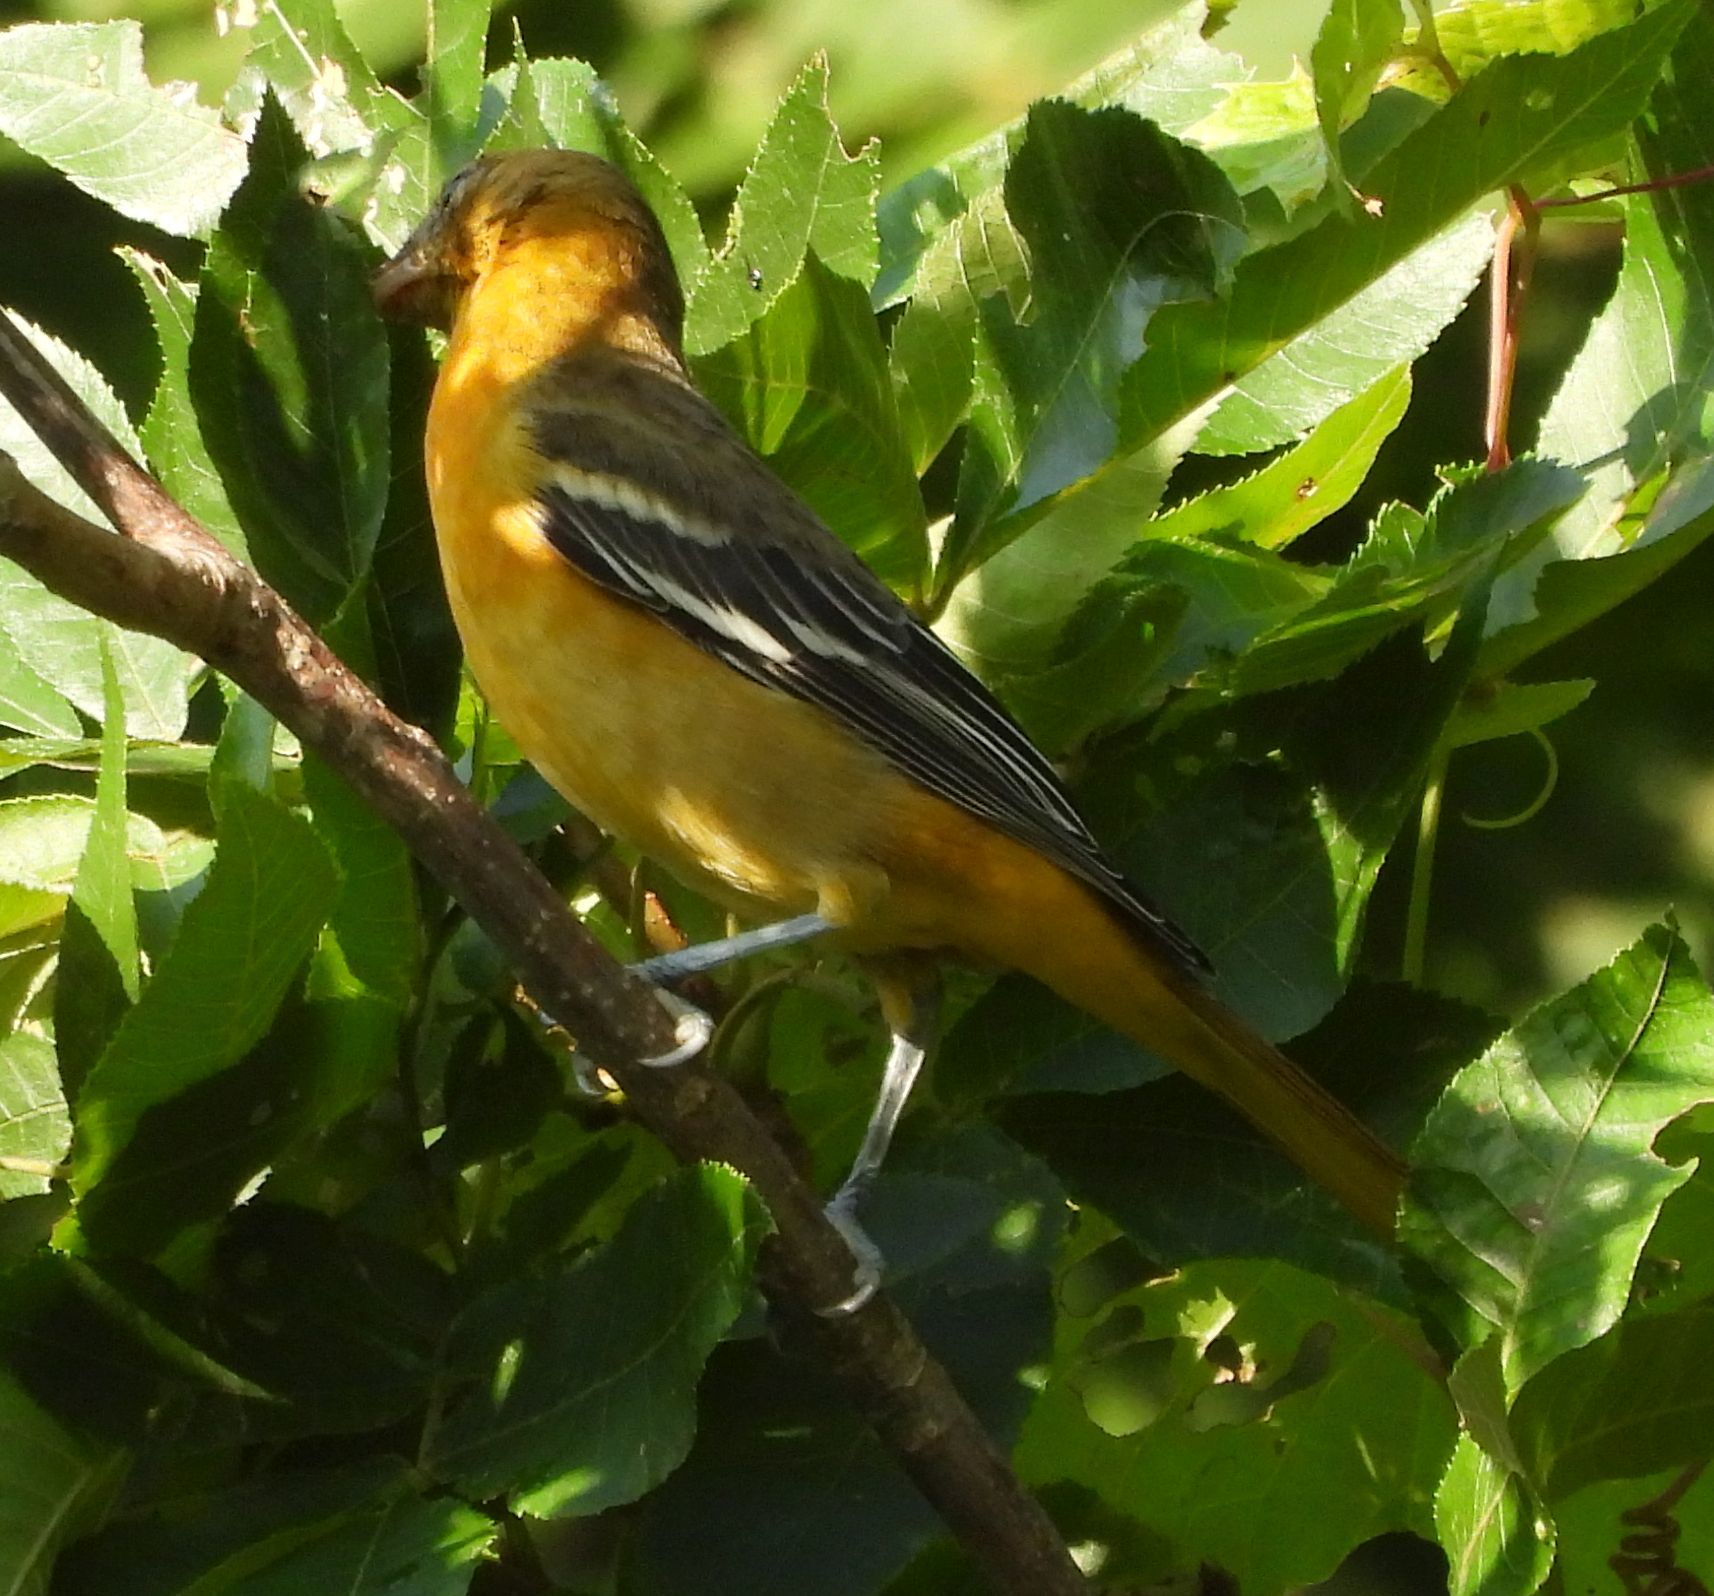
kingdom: Animalia
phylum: Chordata
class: Aves
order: Passeriformes
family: Icteridae
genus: Icterus
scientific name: Icterus galbula
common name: Baltimore oriole
